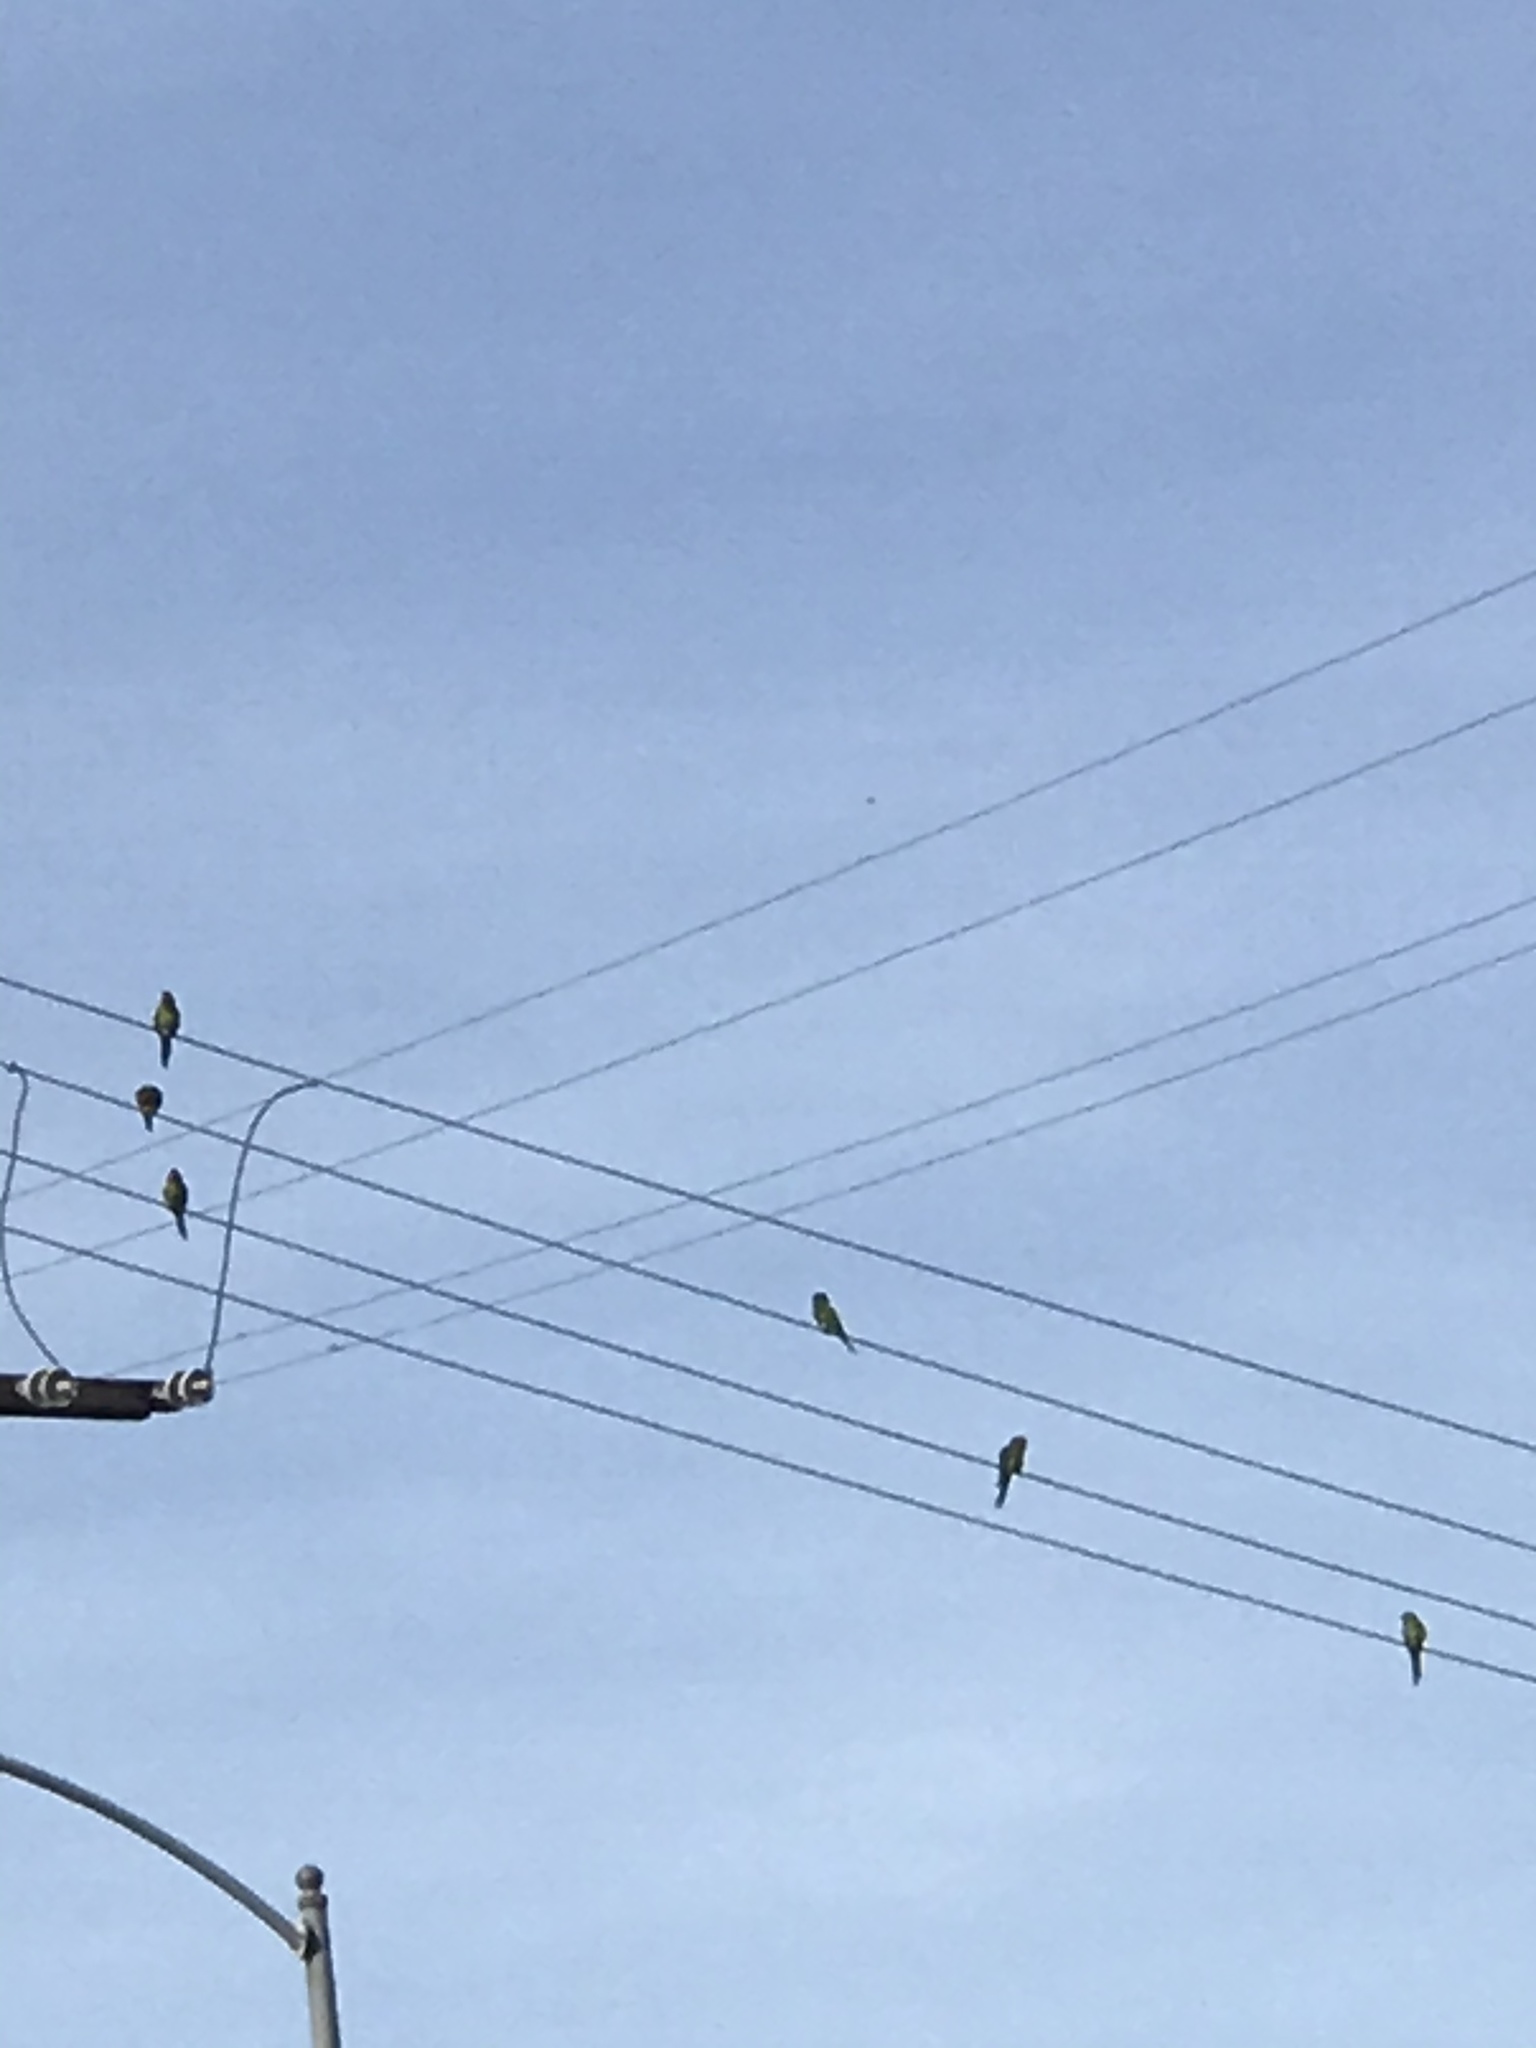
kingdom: Animalia
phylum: Chordata
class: Aves
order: Psittaciformes
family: Psittacidae
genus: Psittacara
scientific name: Psittacara
